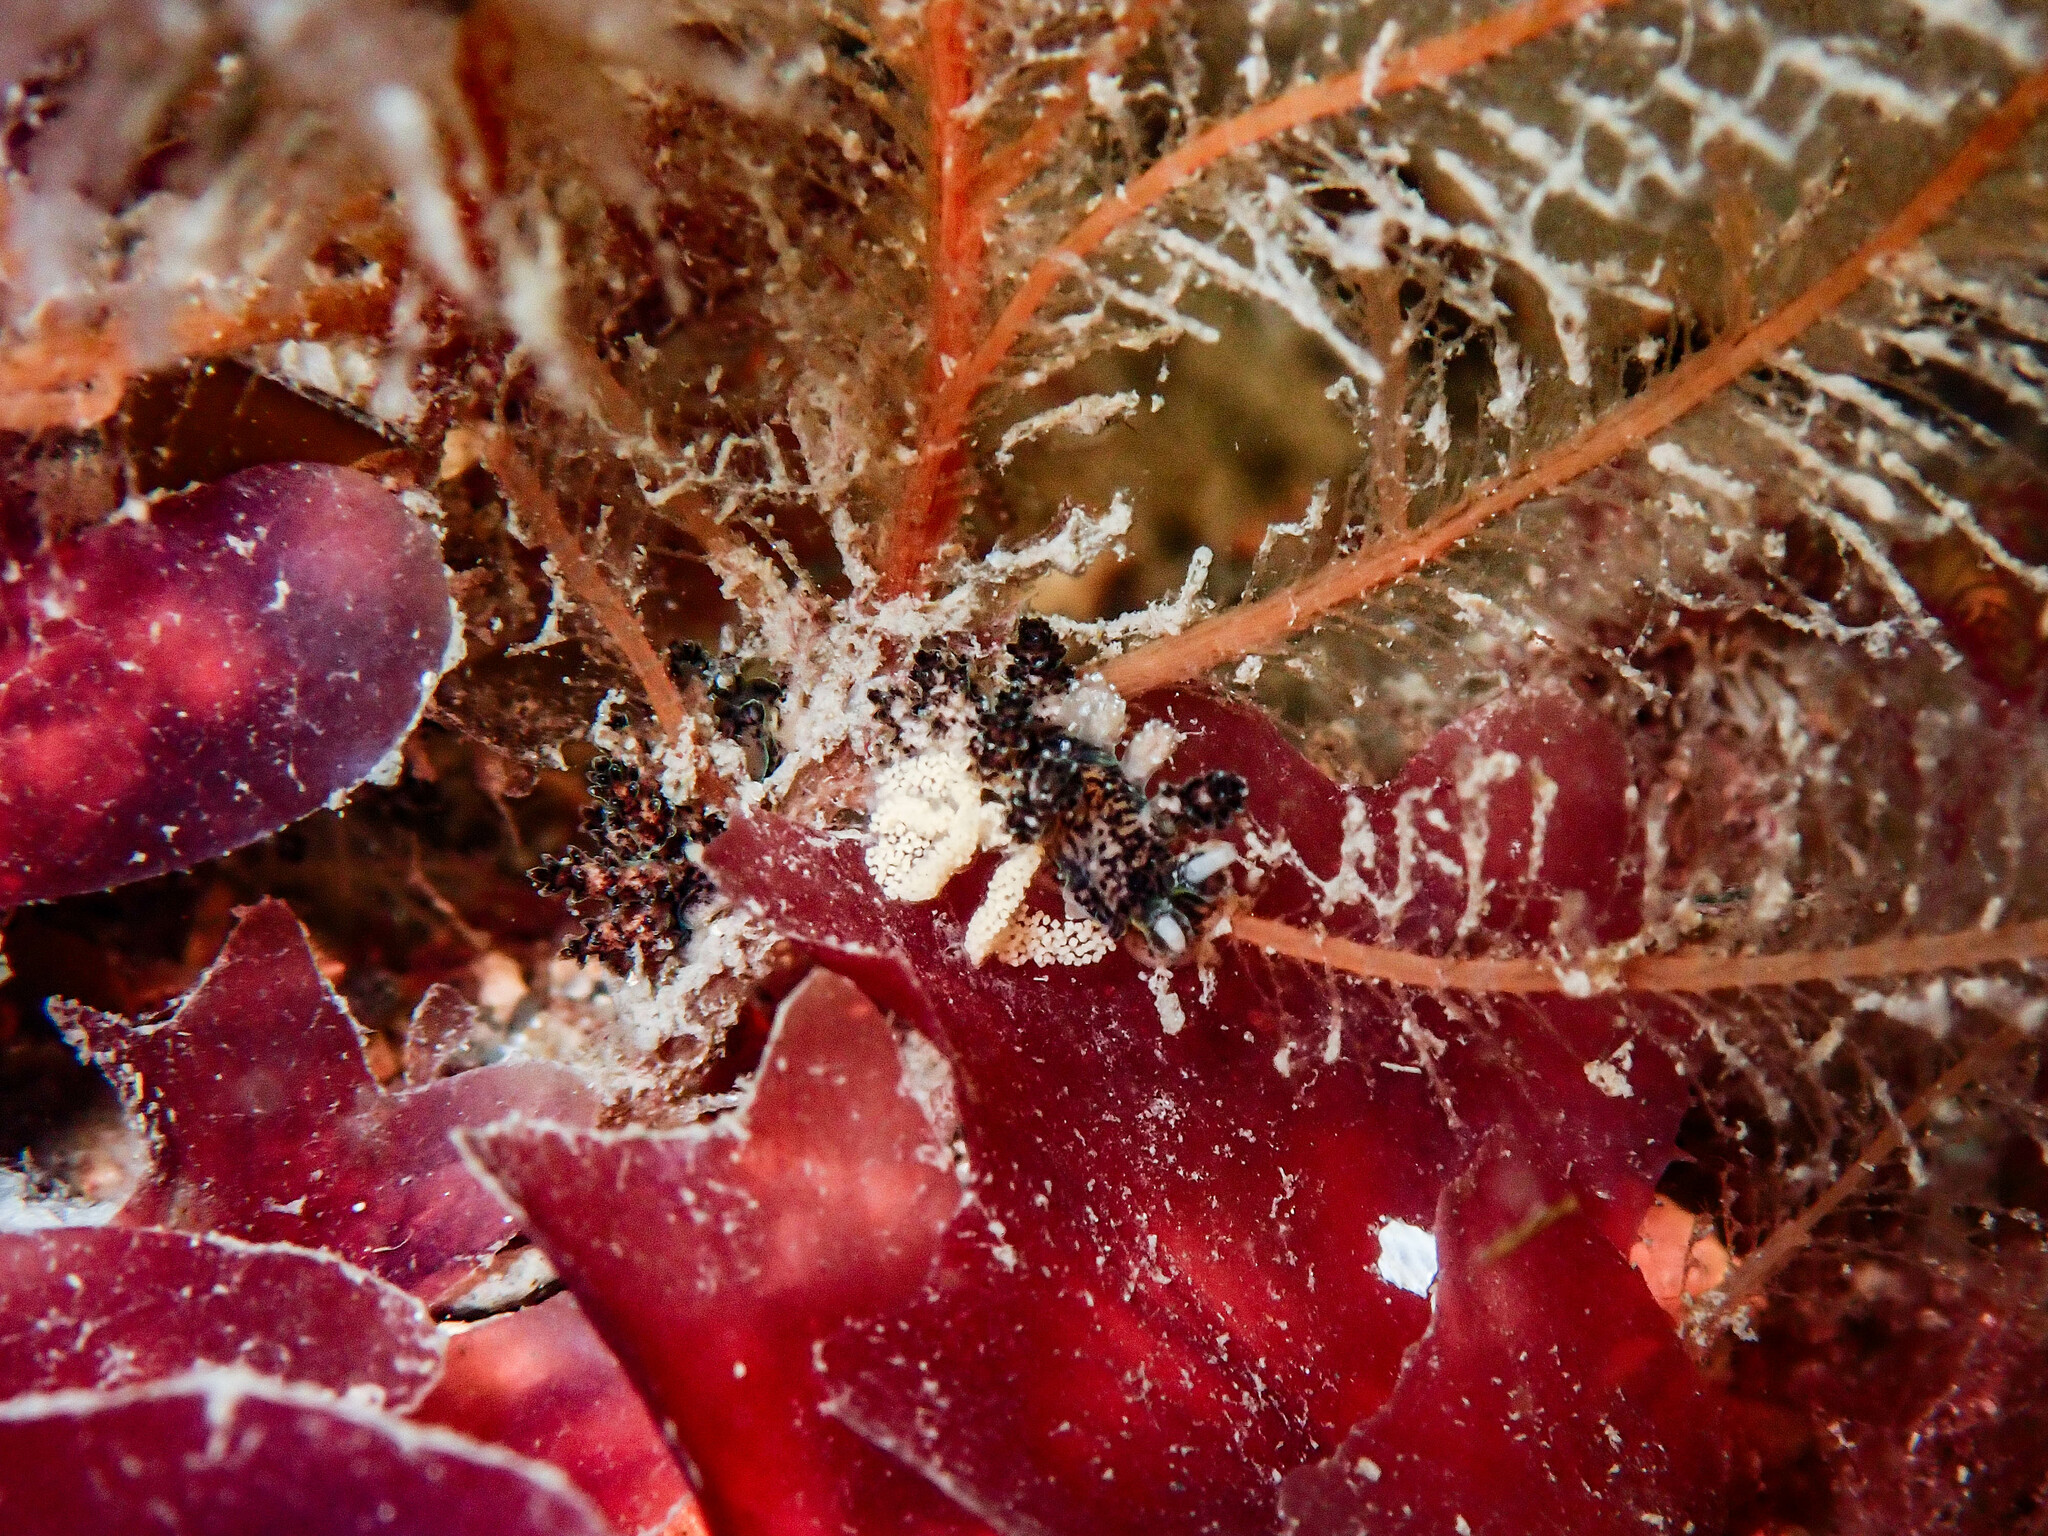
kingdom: Animalia
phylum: Mollusca
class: Gastropoda
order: Nudibranchia
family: Dotidae
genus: Doto
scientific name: Doto cuspidata
